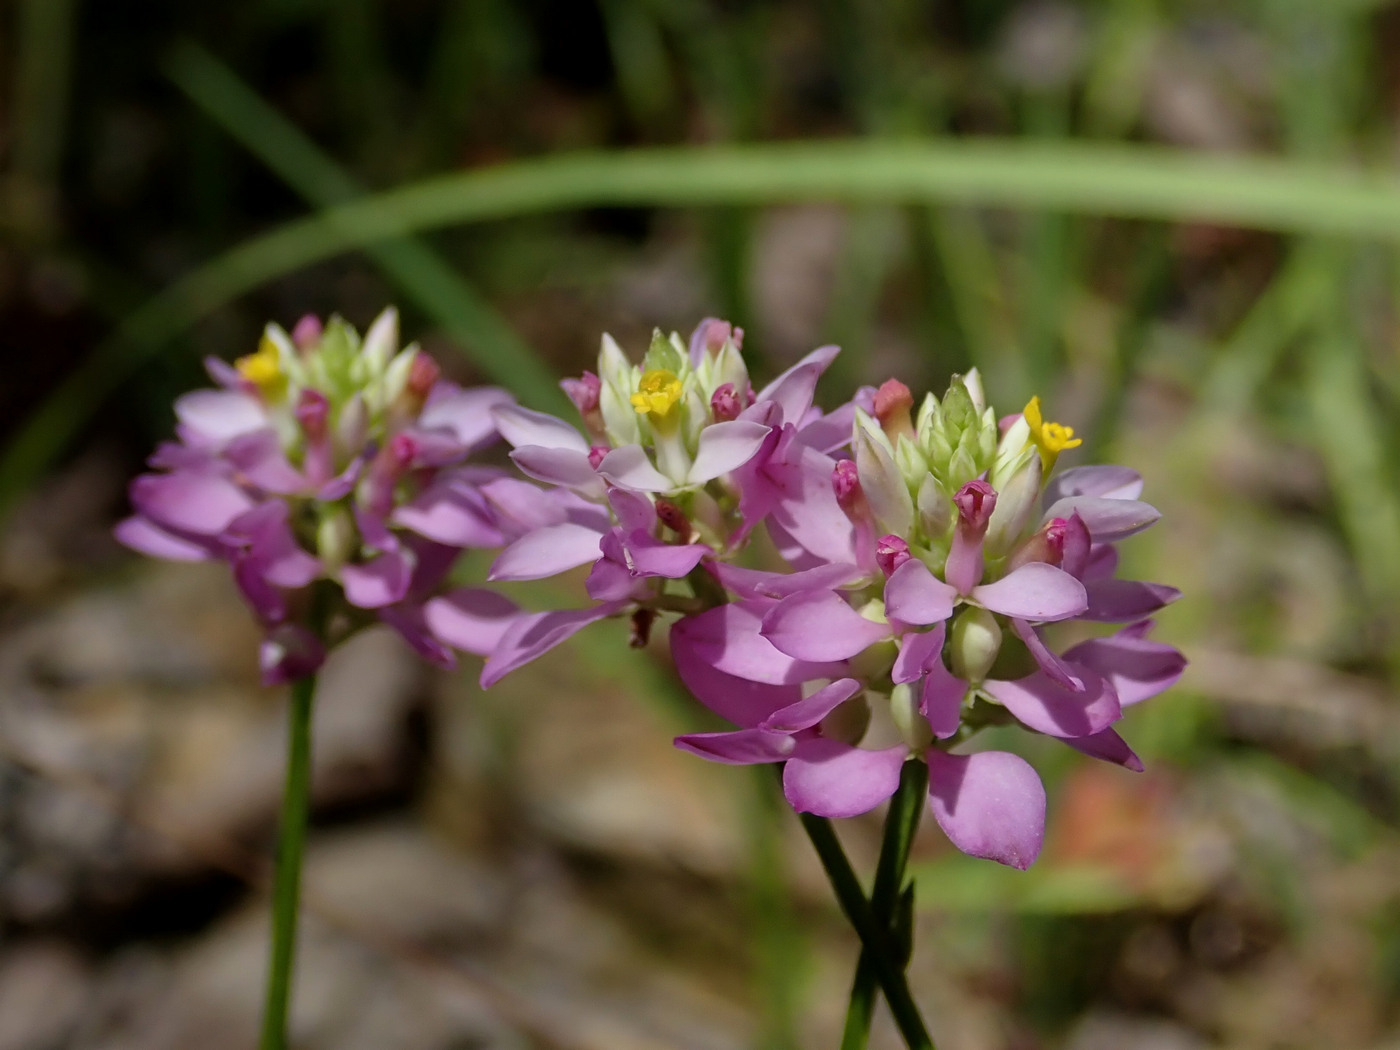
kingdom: Plantae
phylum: Tracheophyta
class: Magnoliopsida
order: Fabales
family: Polygalaceae
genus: Polygala
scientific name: Polygala curtissii
